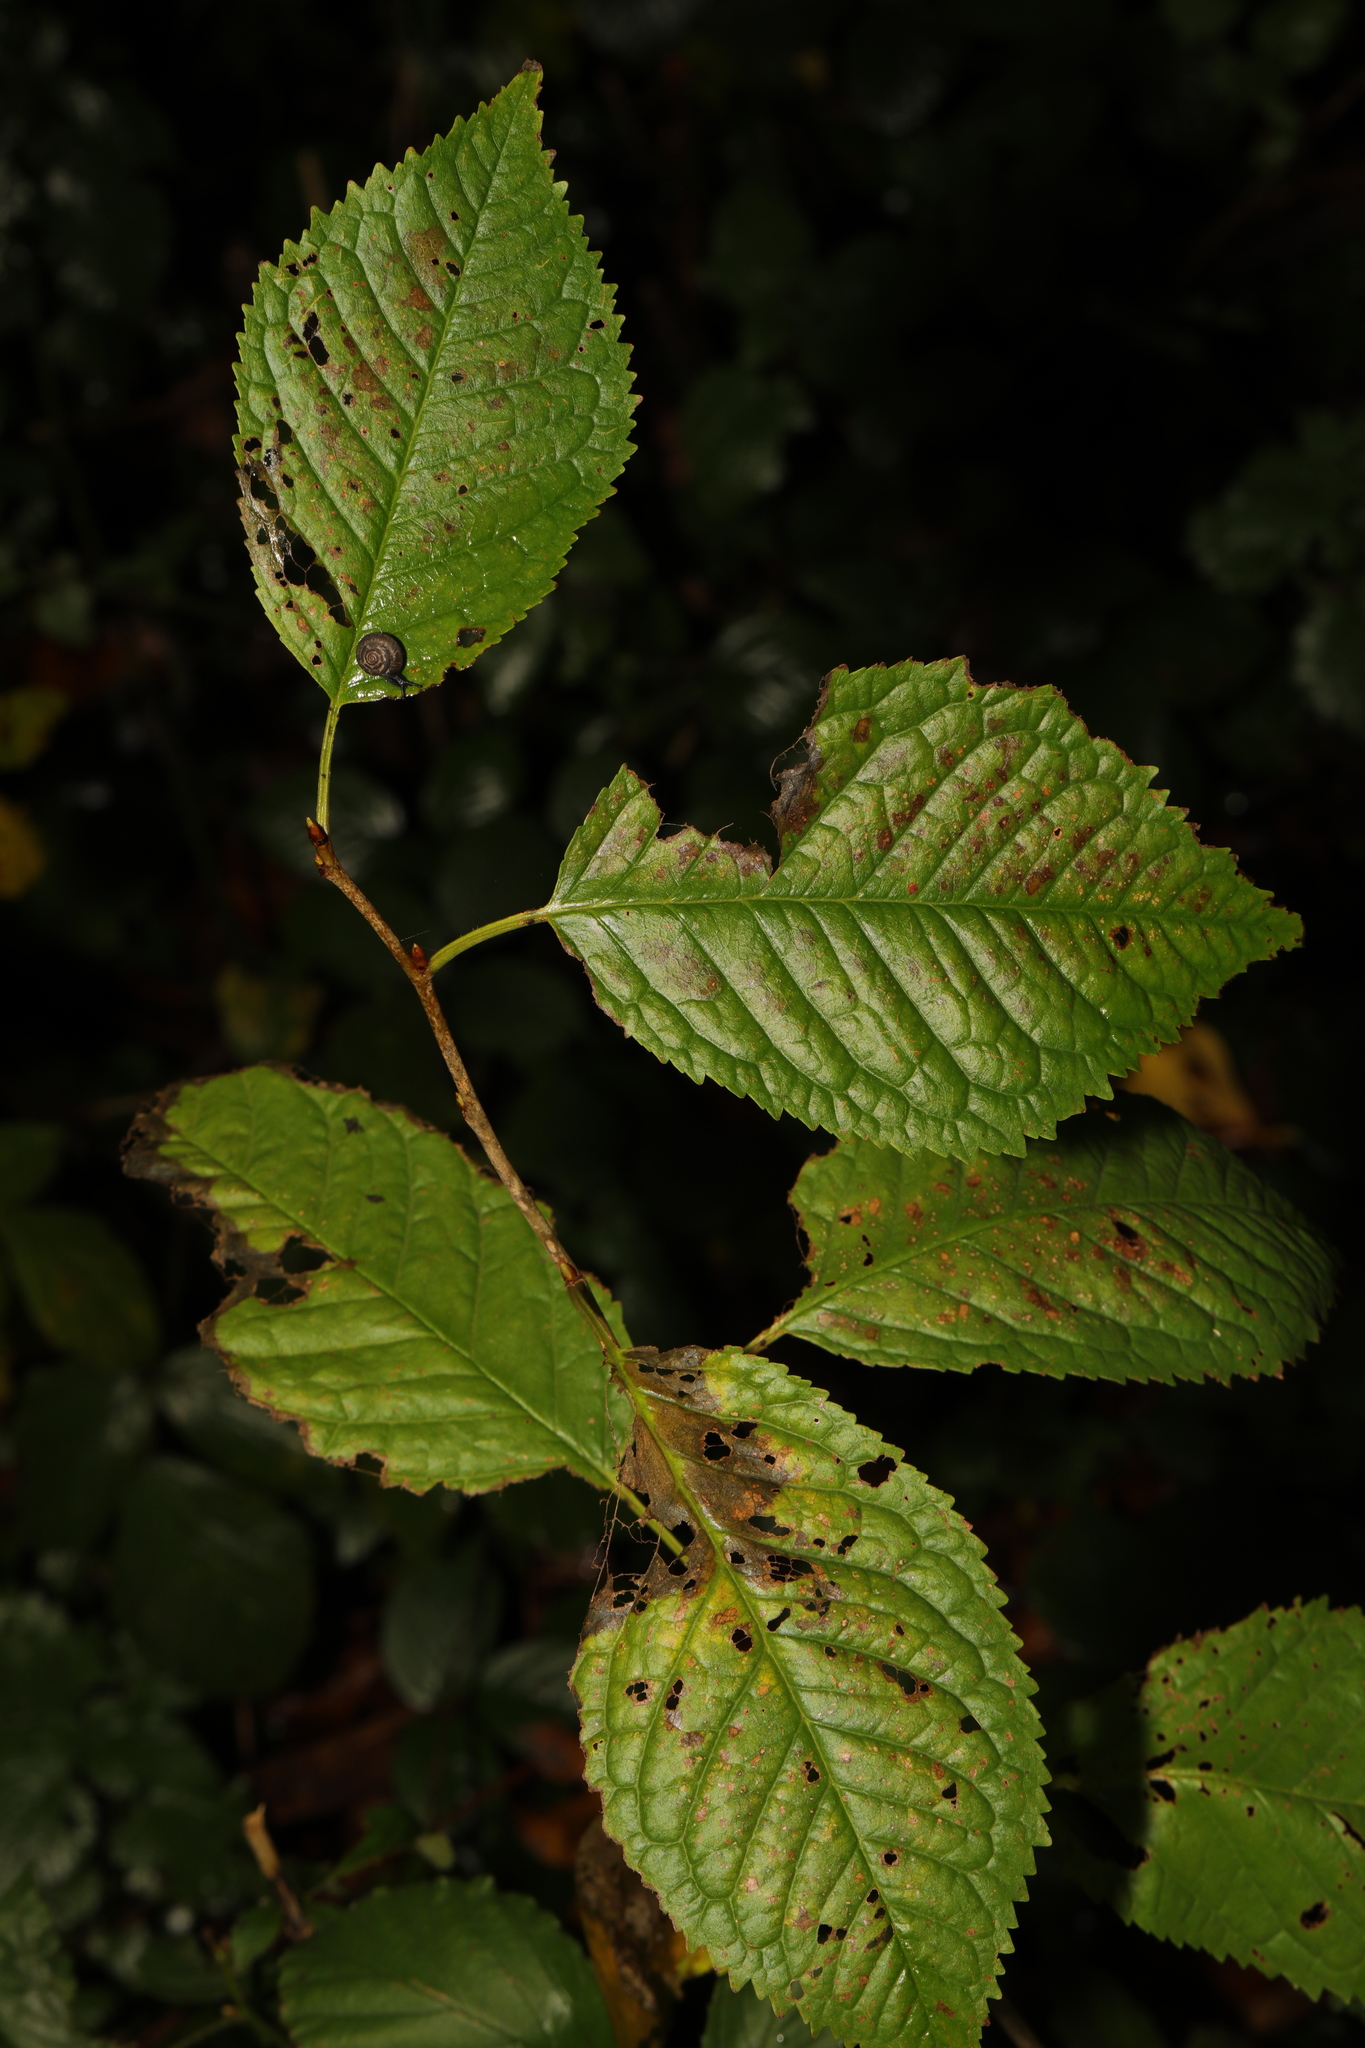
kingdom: Plantae
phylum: Tracheophyta
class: Magnoliopsida
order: Rosales
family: Rosaceae
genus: Prunus
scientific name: Prunus avium
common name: Sweet cherry
